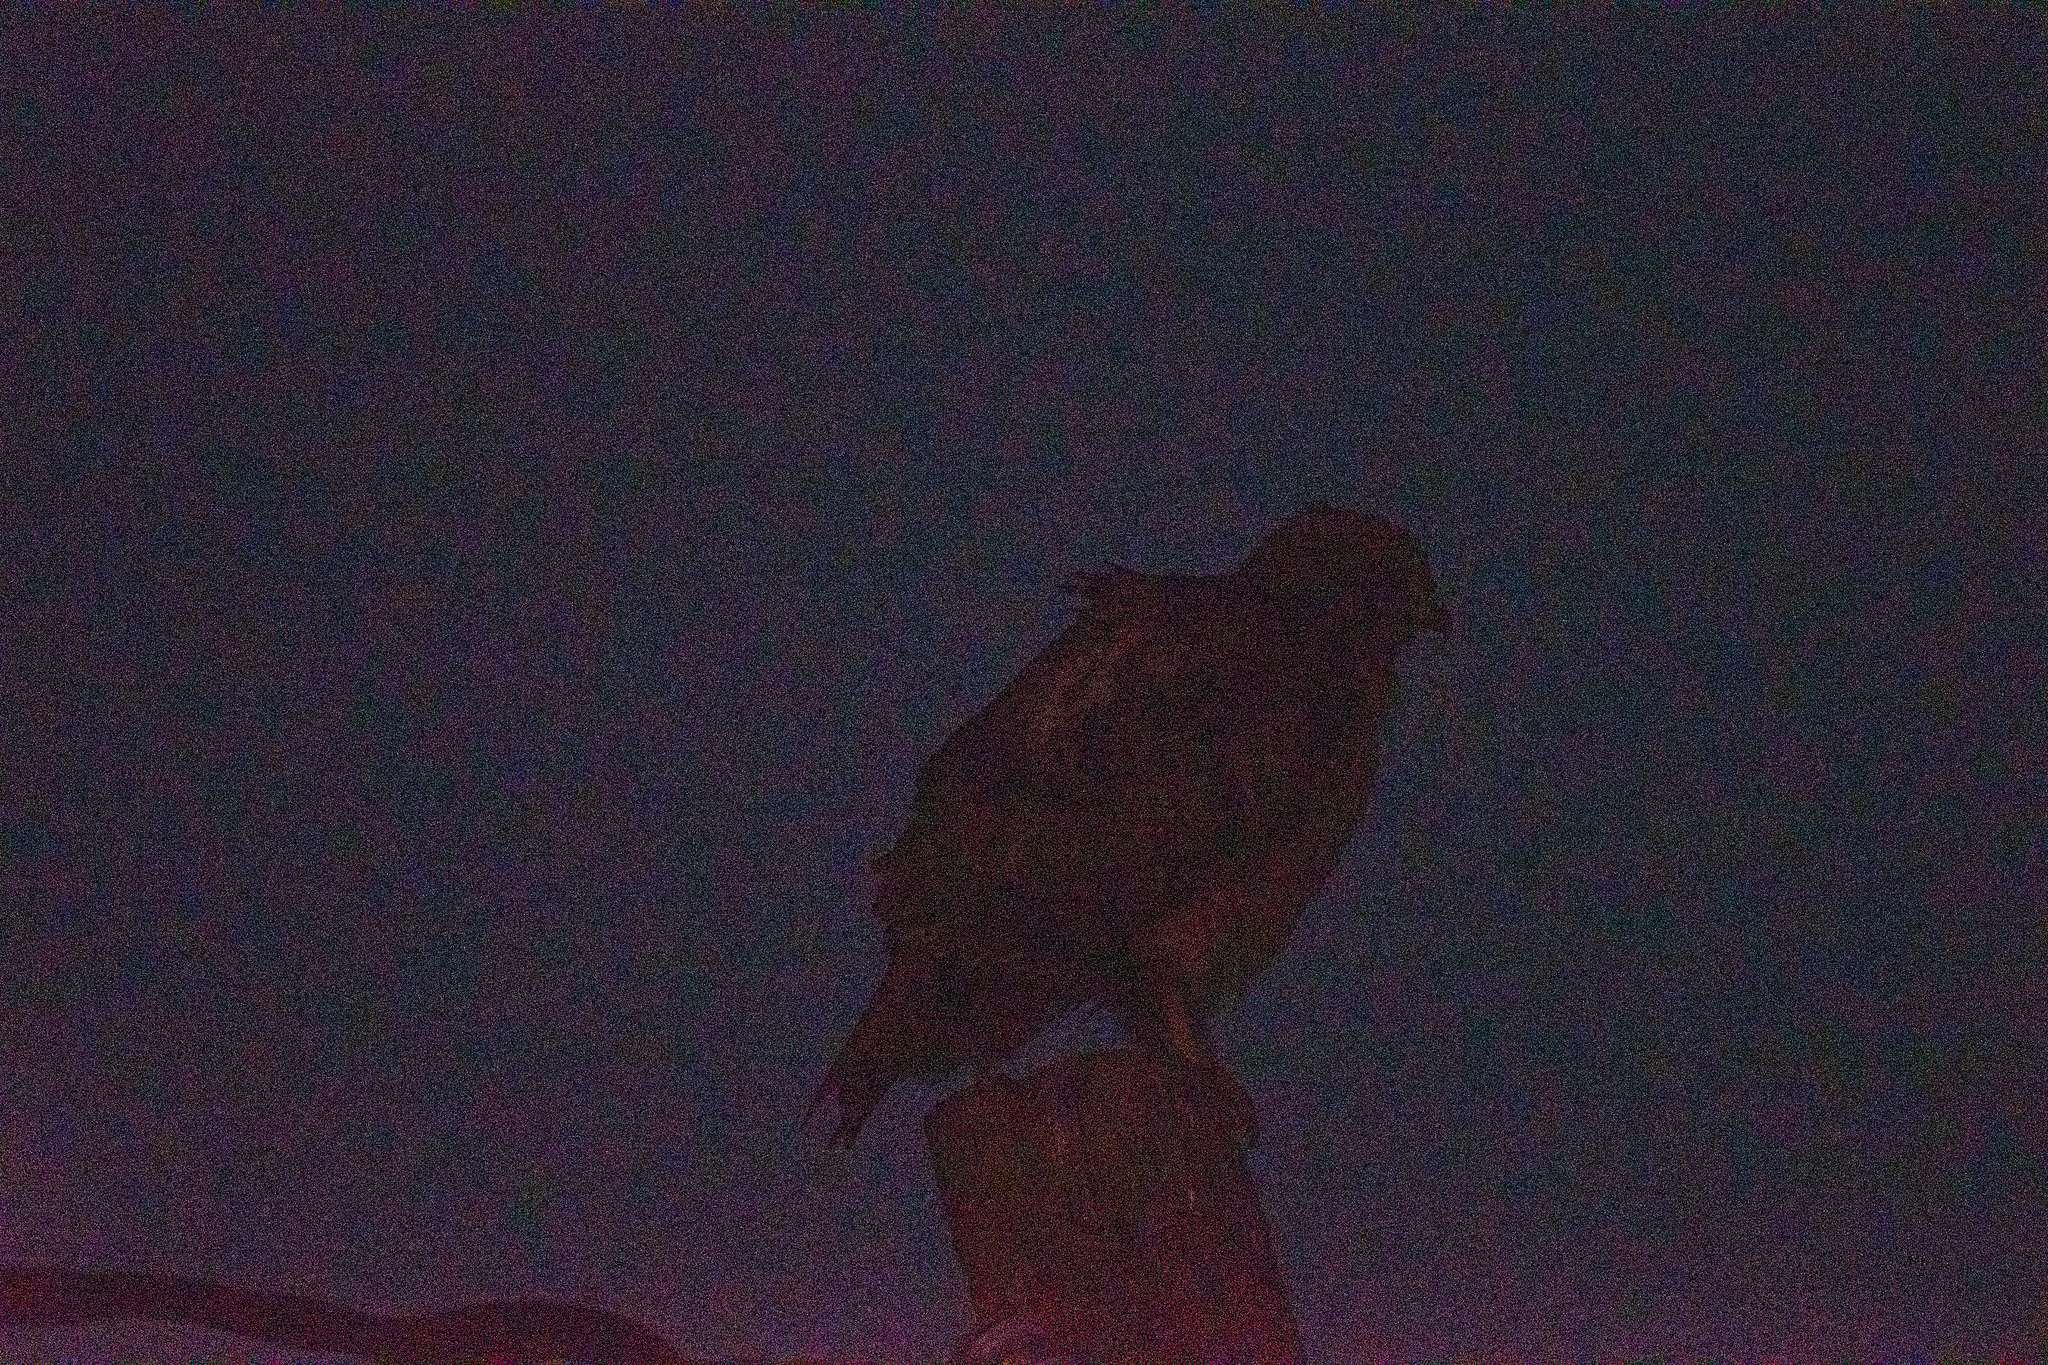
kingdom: Animalia
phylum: Chordata
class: Aves
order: Accipitriformes
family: Accipitridae
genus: Buteo
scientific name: Buteo jamaicensis
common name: Red-tailed hawk
